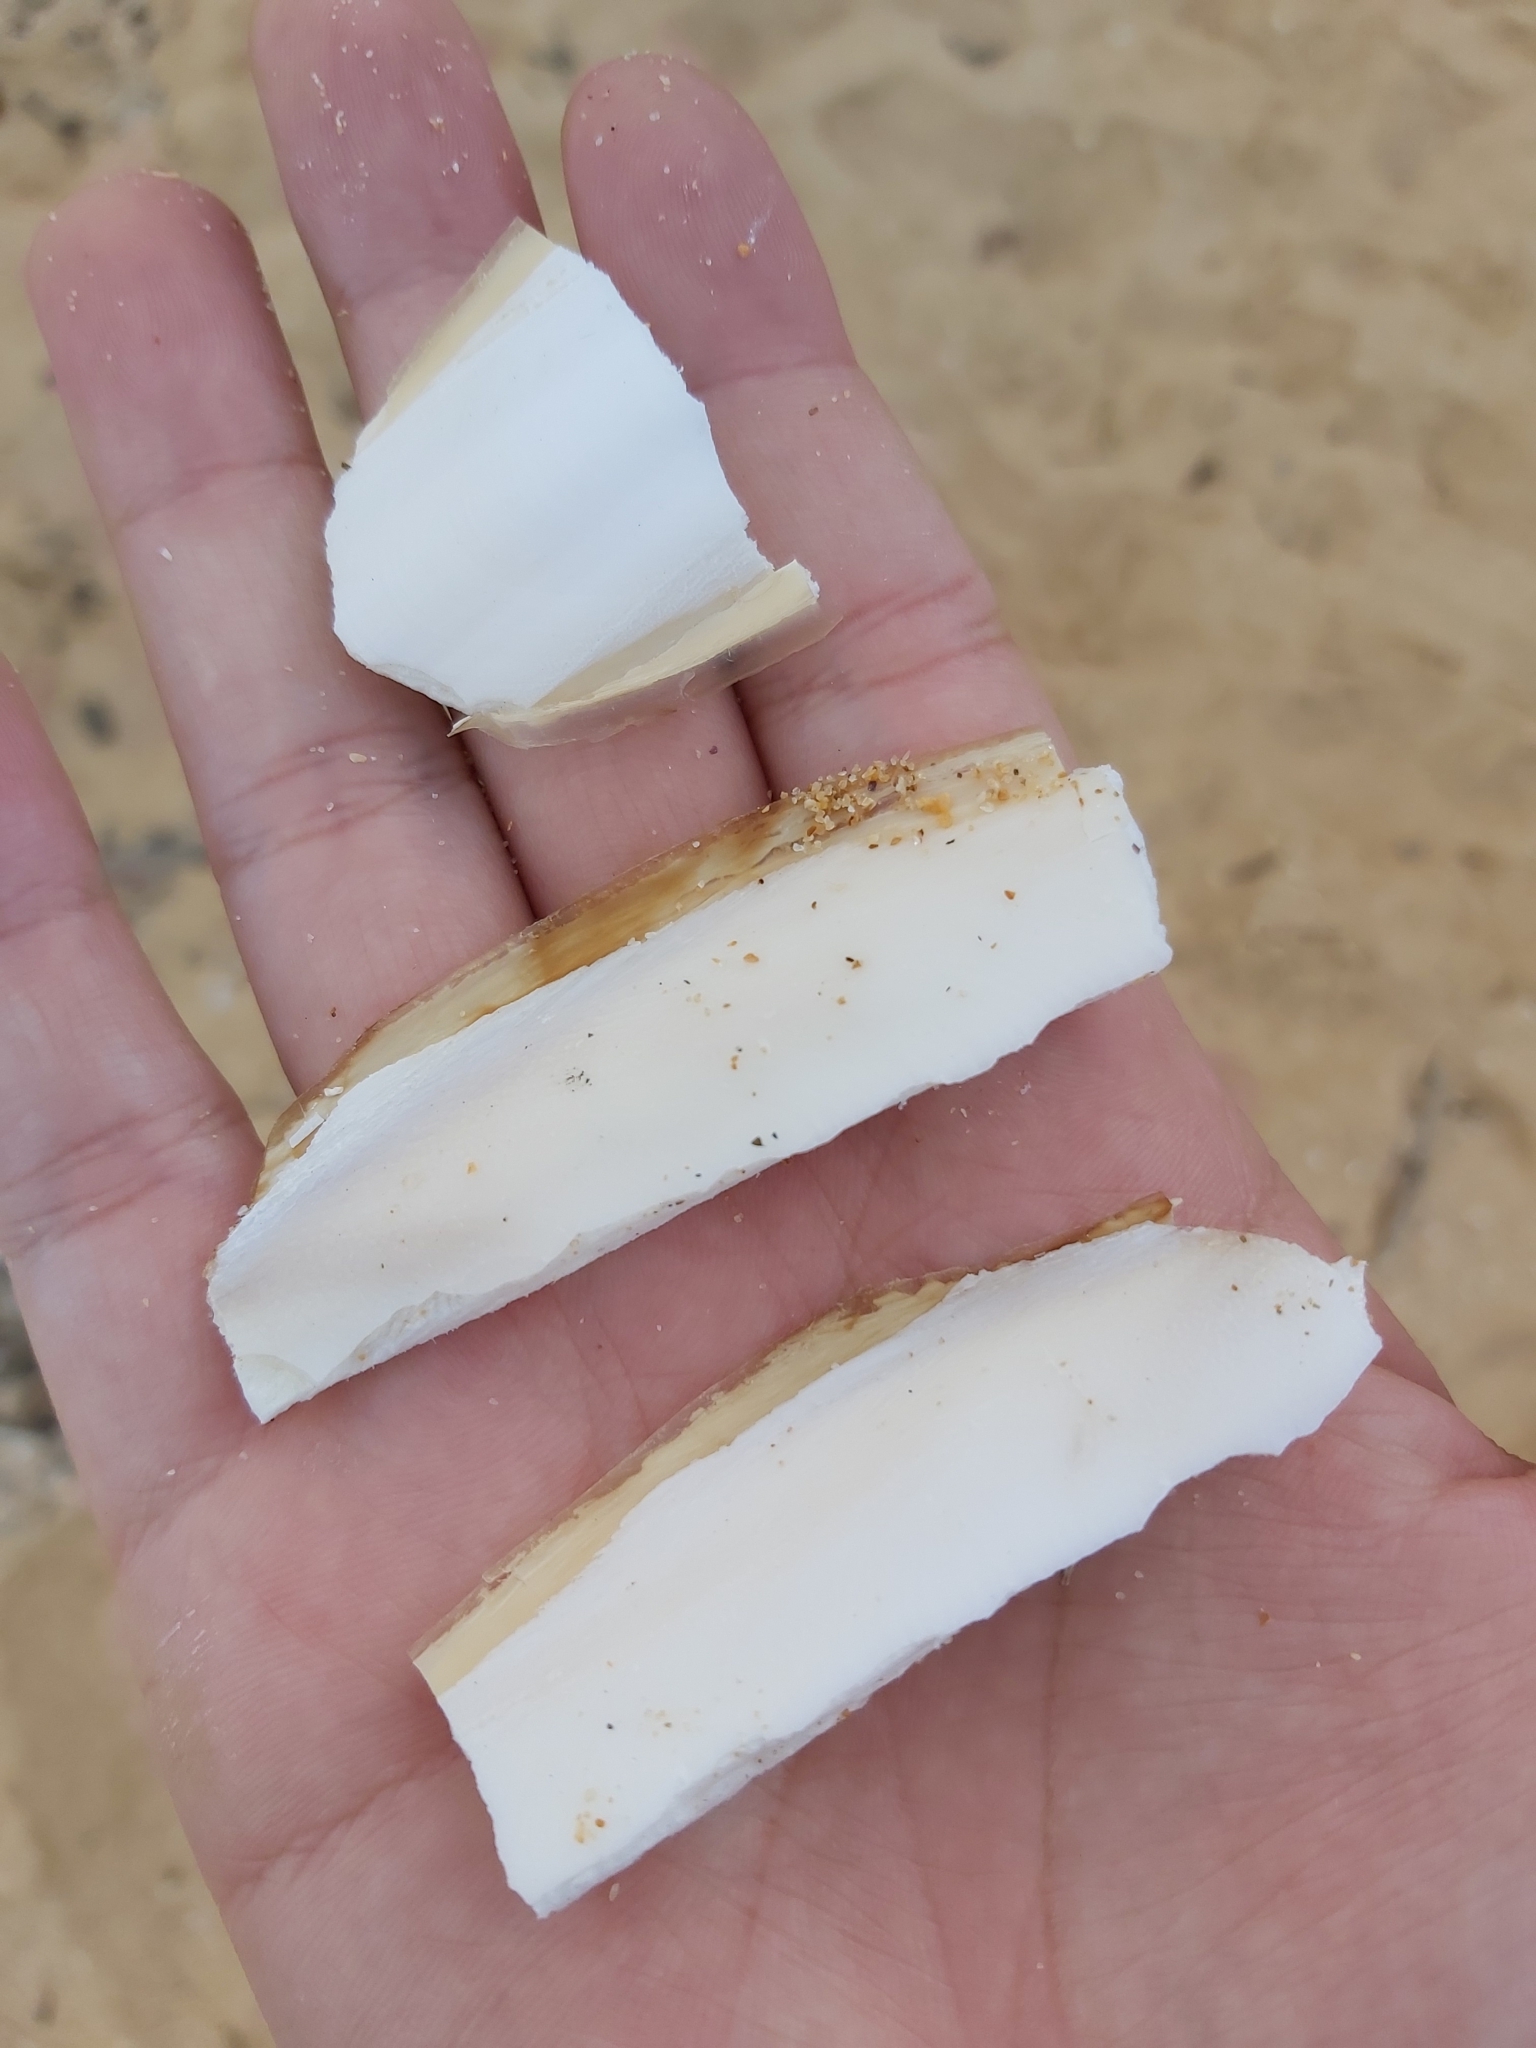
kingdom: Animalia
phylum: Mollusca
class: Cephalopoda
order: Sepiida
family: Sepiidae
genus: Ascarosepion
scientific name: Ascarosepion apama
